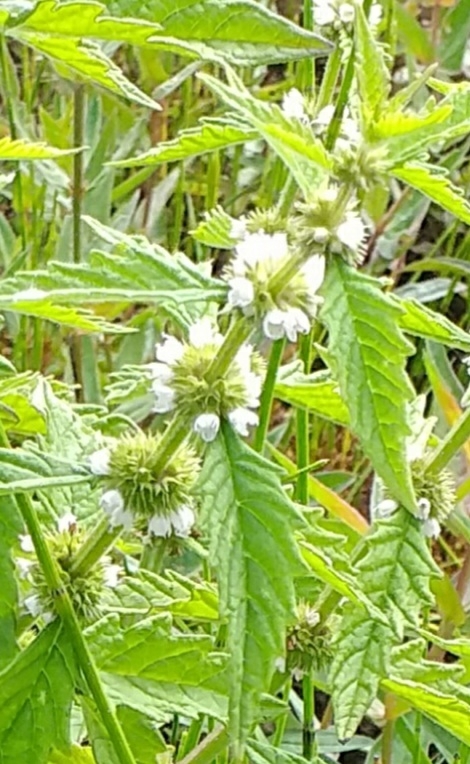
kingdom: Plantae
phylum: Tracheophyta
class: Magnoliopsida
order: Lamiales
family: Lamiaceae
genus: Lycopus
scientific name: Lycopus europaeus
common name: European bugleweed
